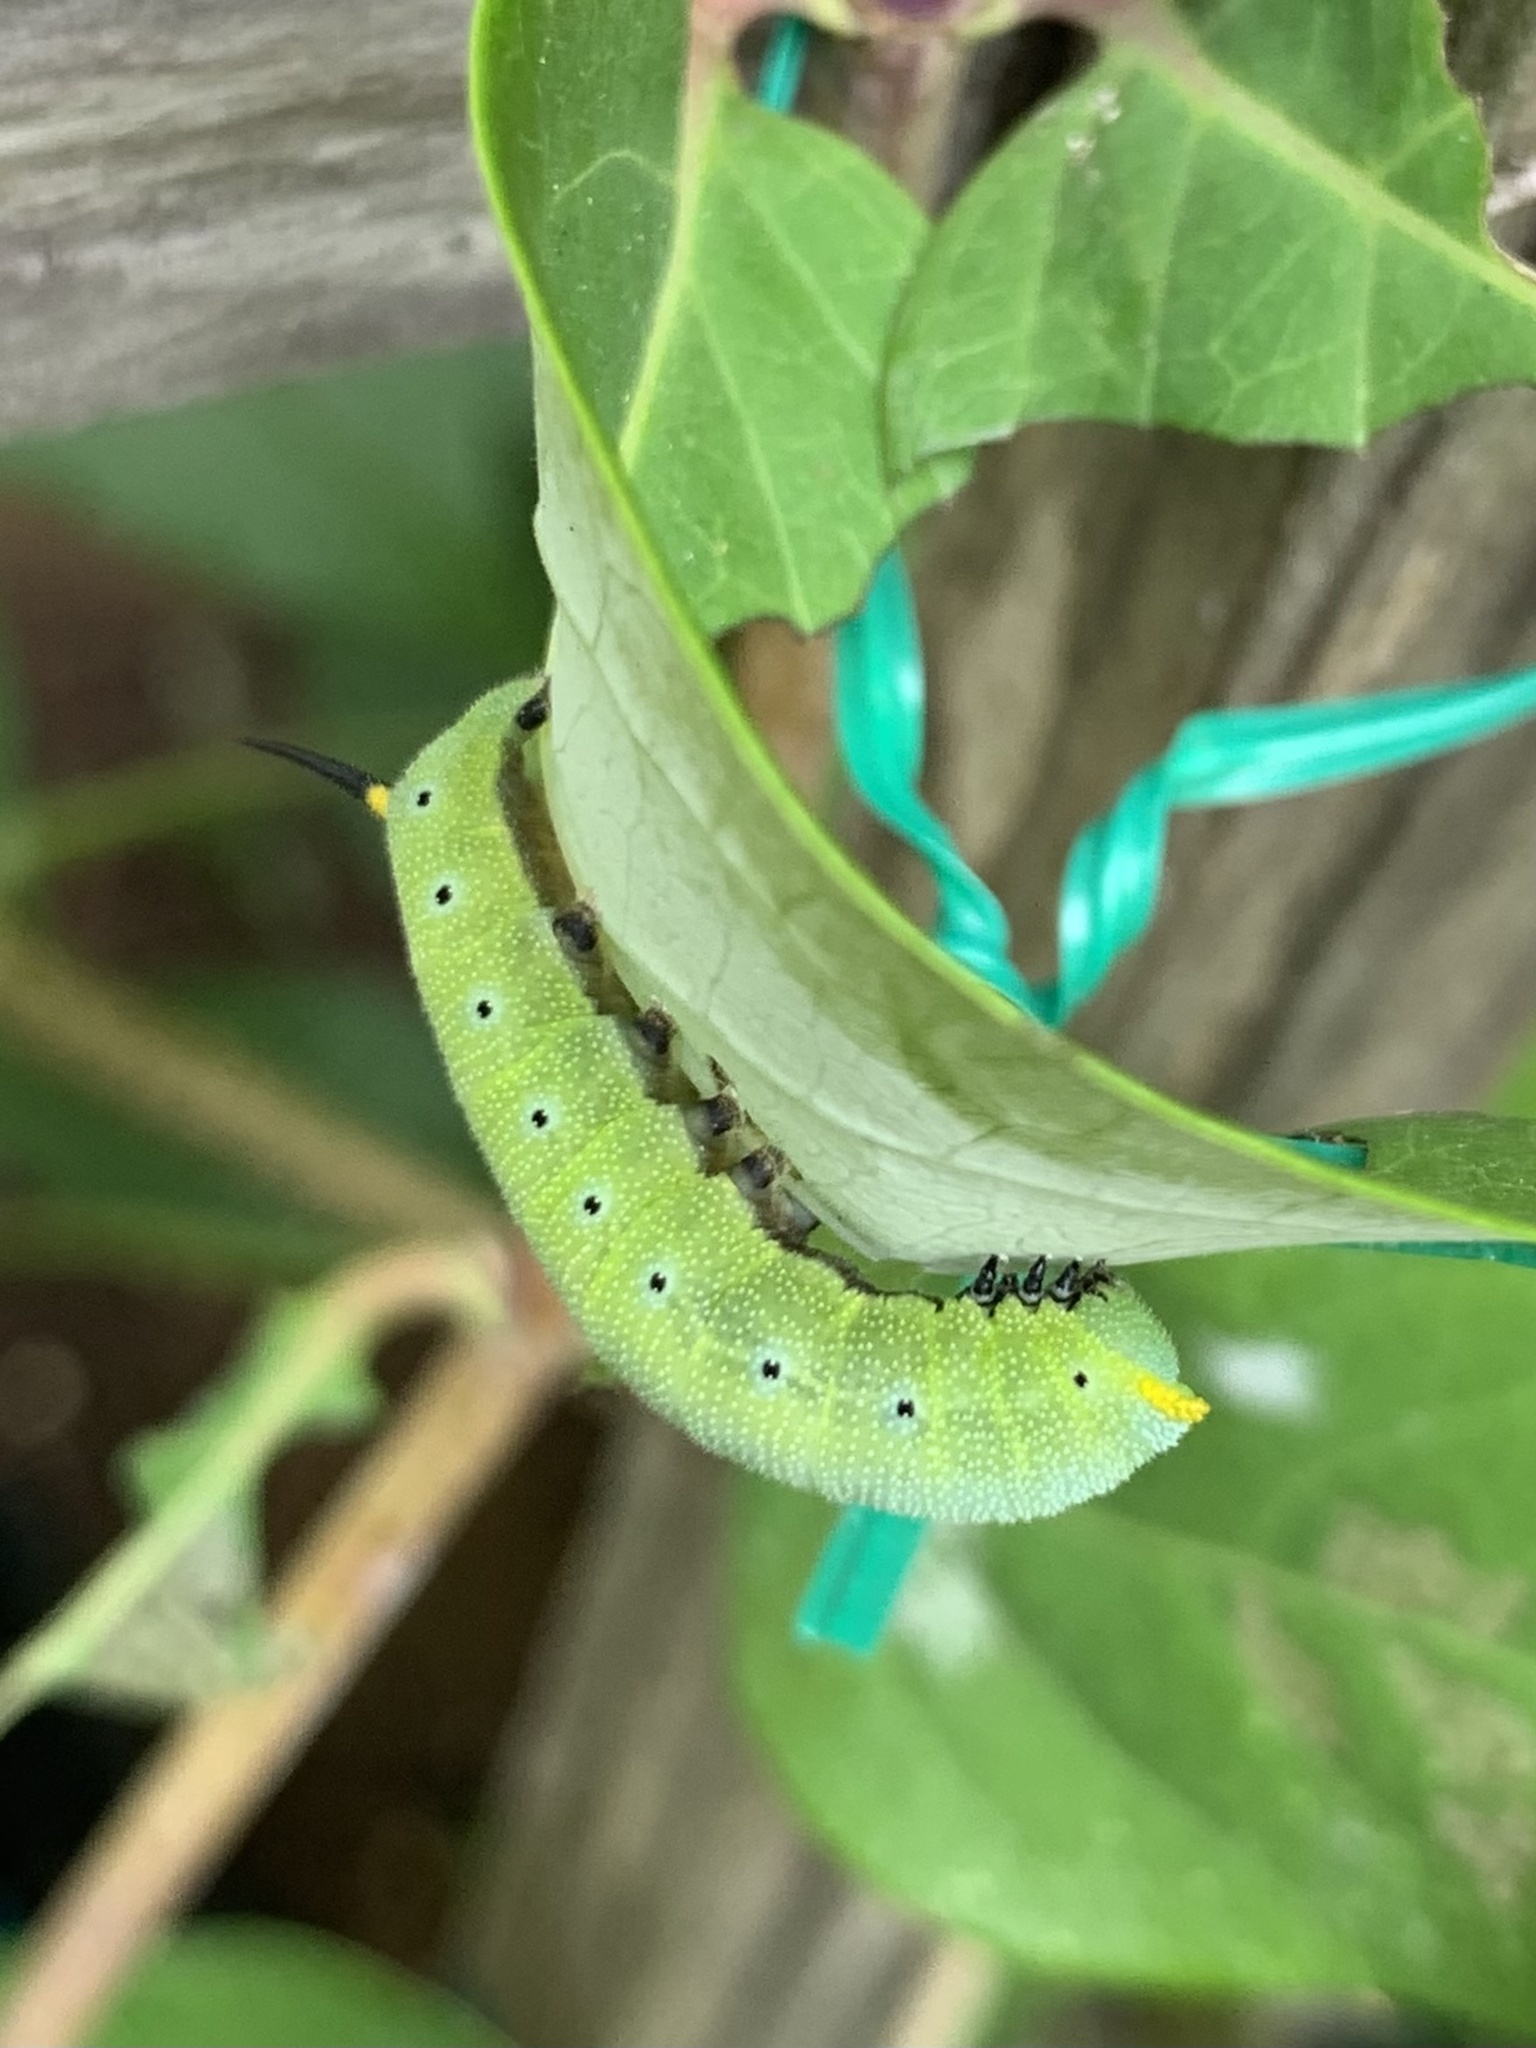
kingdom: Animalia
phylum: Arthropoda
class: Insecta
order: Lepidoptera
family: Sphingidae
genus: Hemaris
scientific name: Hemaris diffinis
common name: Bumblebee moth
